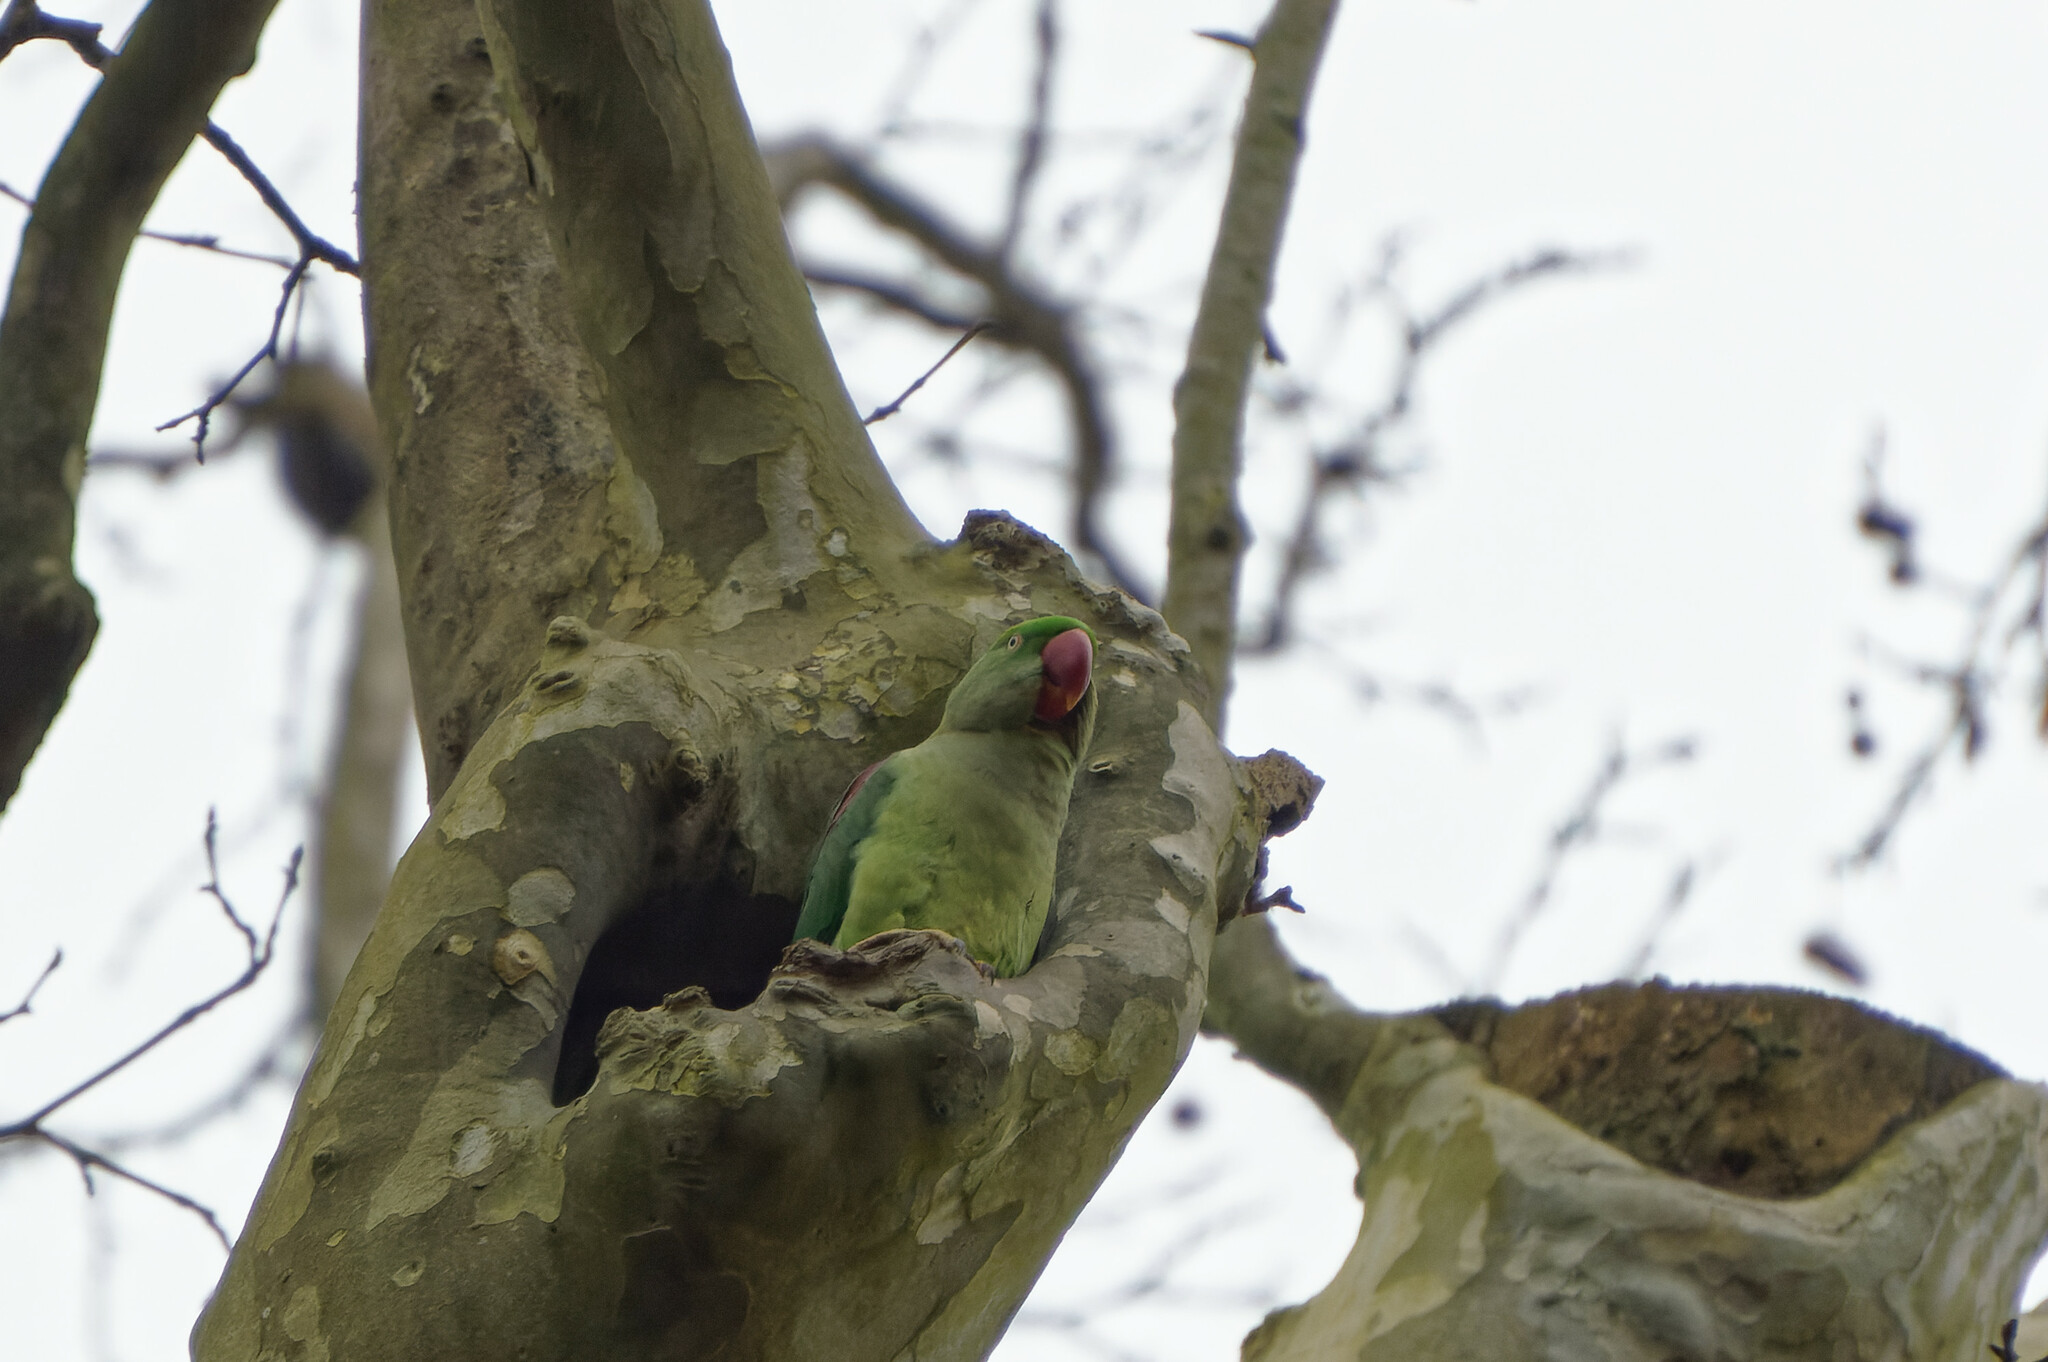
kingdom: Animalia
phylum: Chordata
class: Aves
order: Psittaciformes
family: Psittacidae
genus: Psittacula
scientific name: Psittacula eupatria
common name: Alexandrine parakeet
